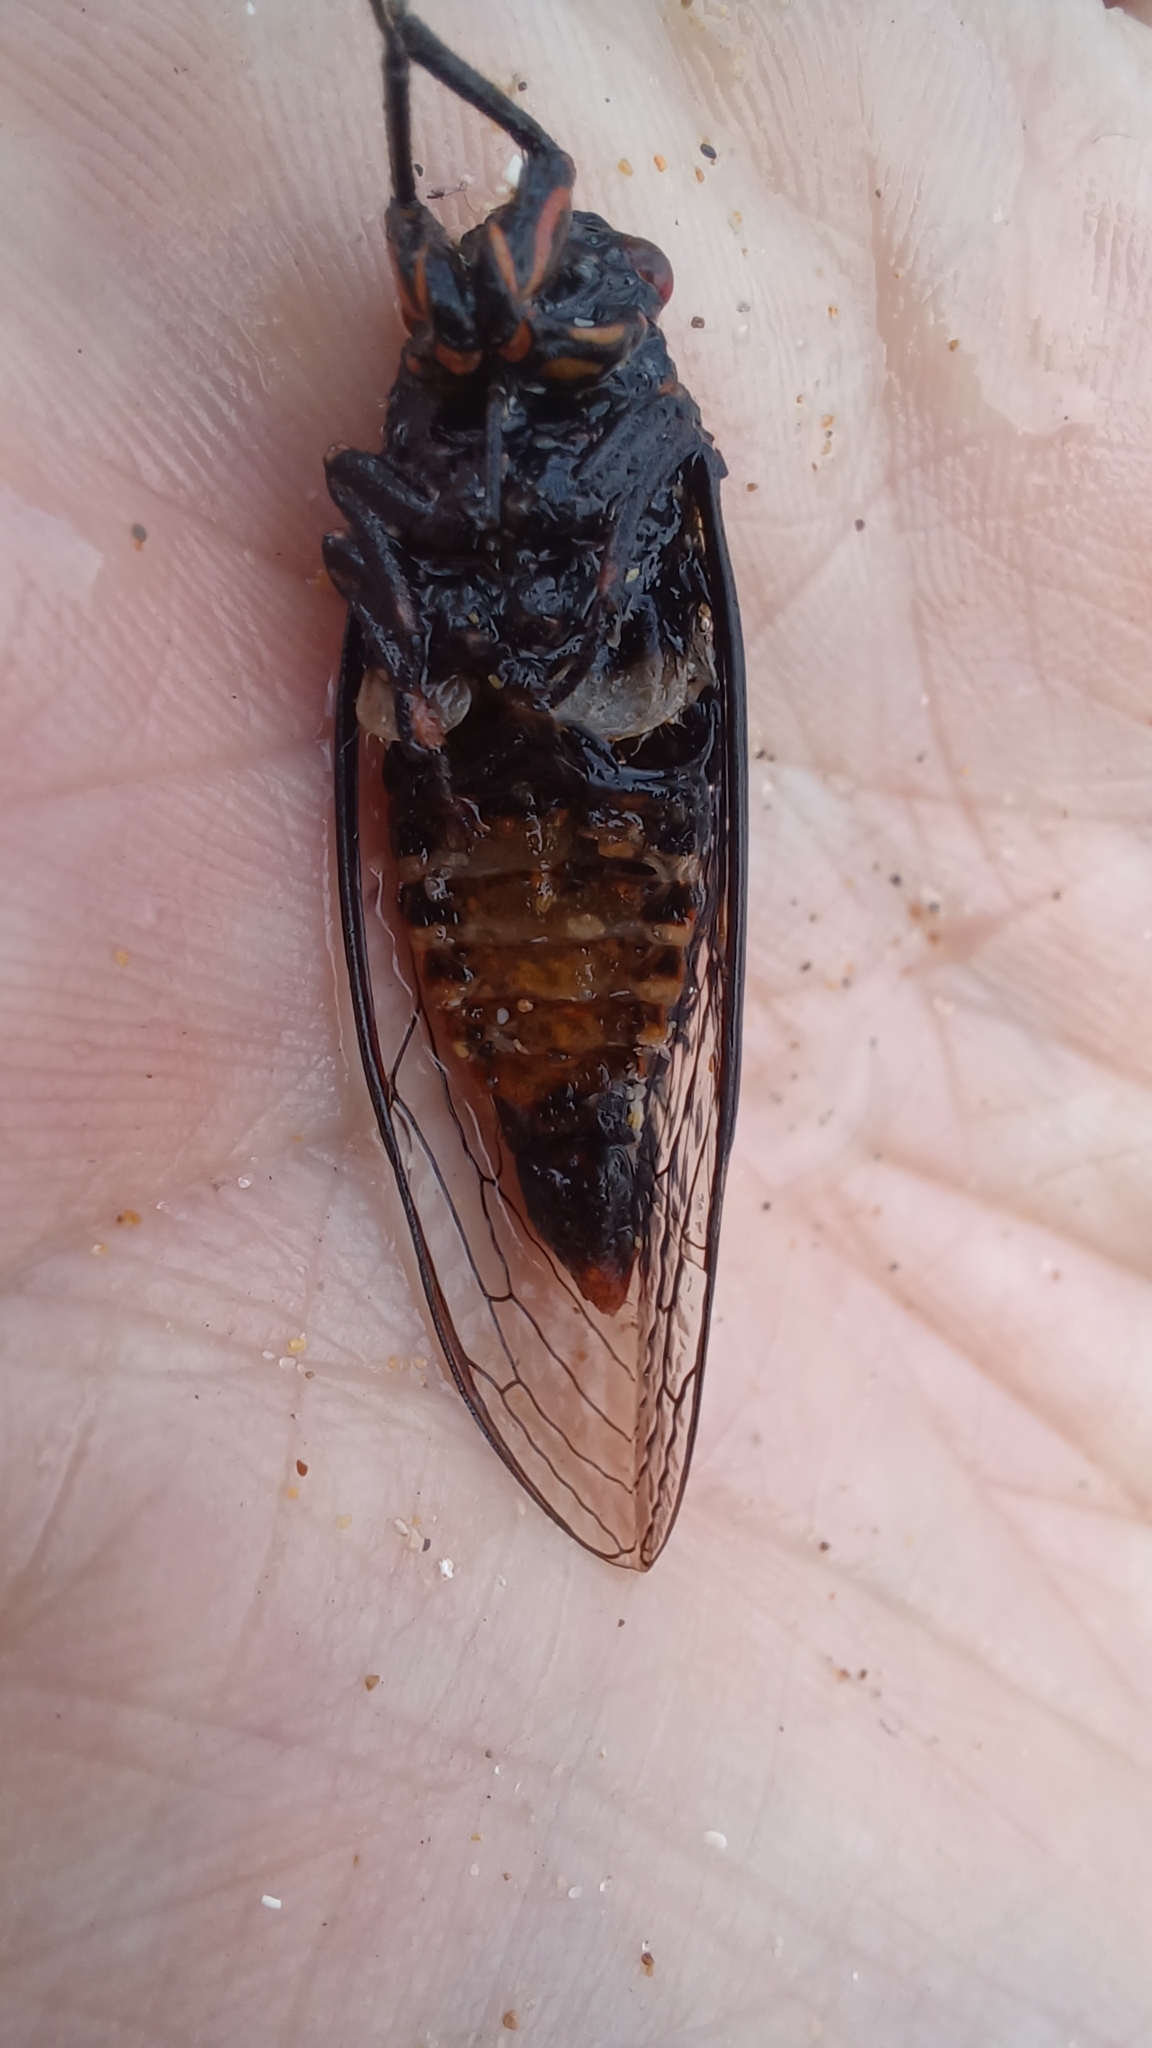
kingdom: Animalia
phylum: Arthropoda
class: Insecta
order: Hemiptera
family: Cicadidae
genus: Yoyetta
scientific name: Yoyetta grandis
